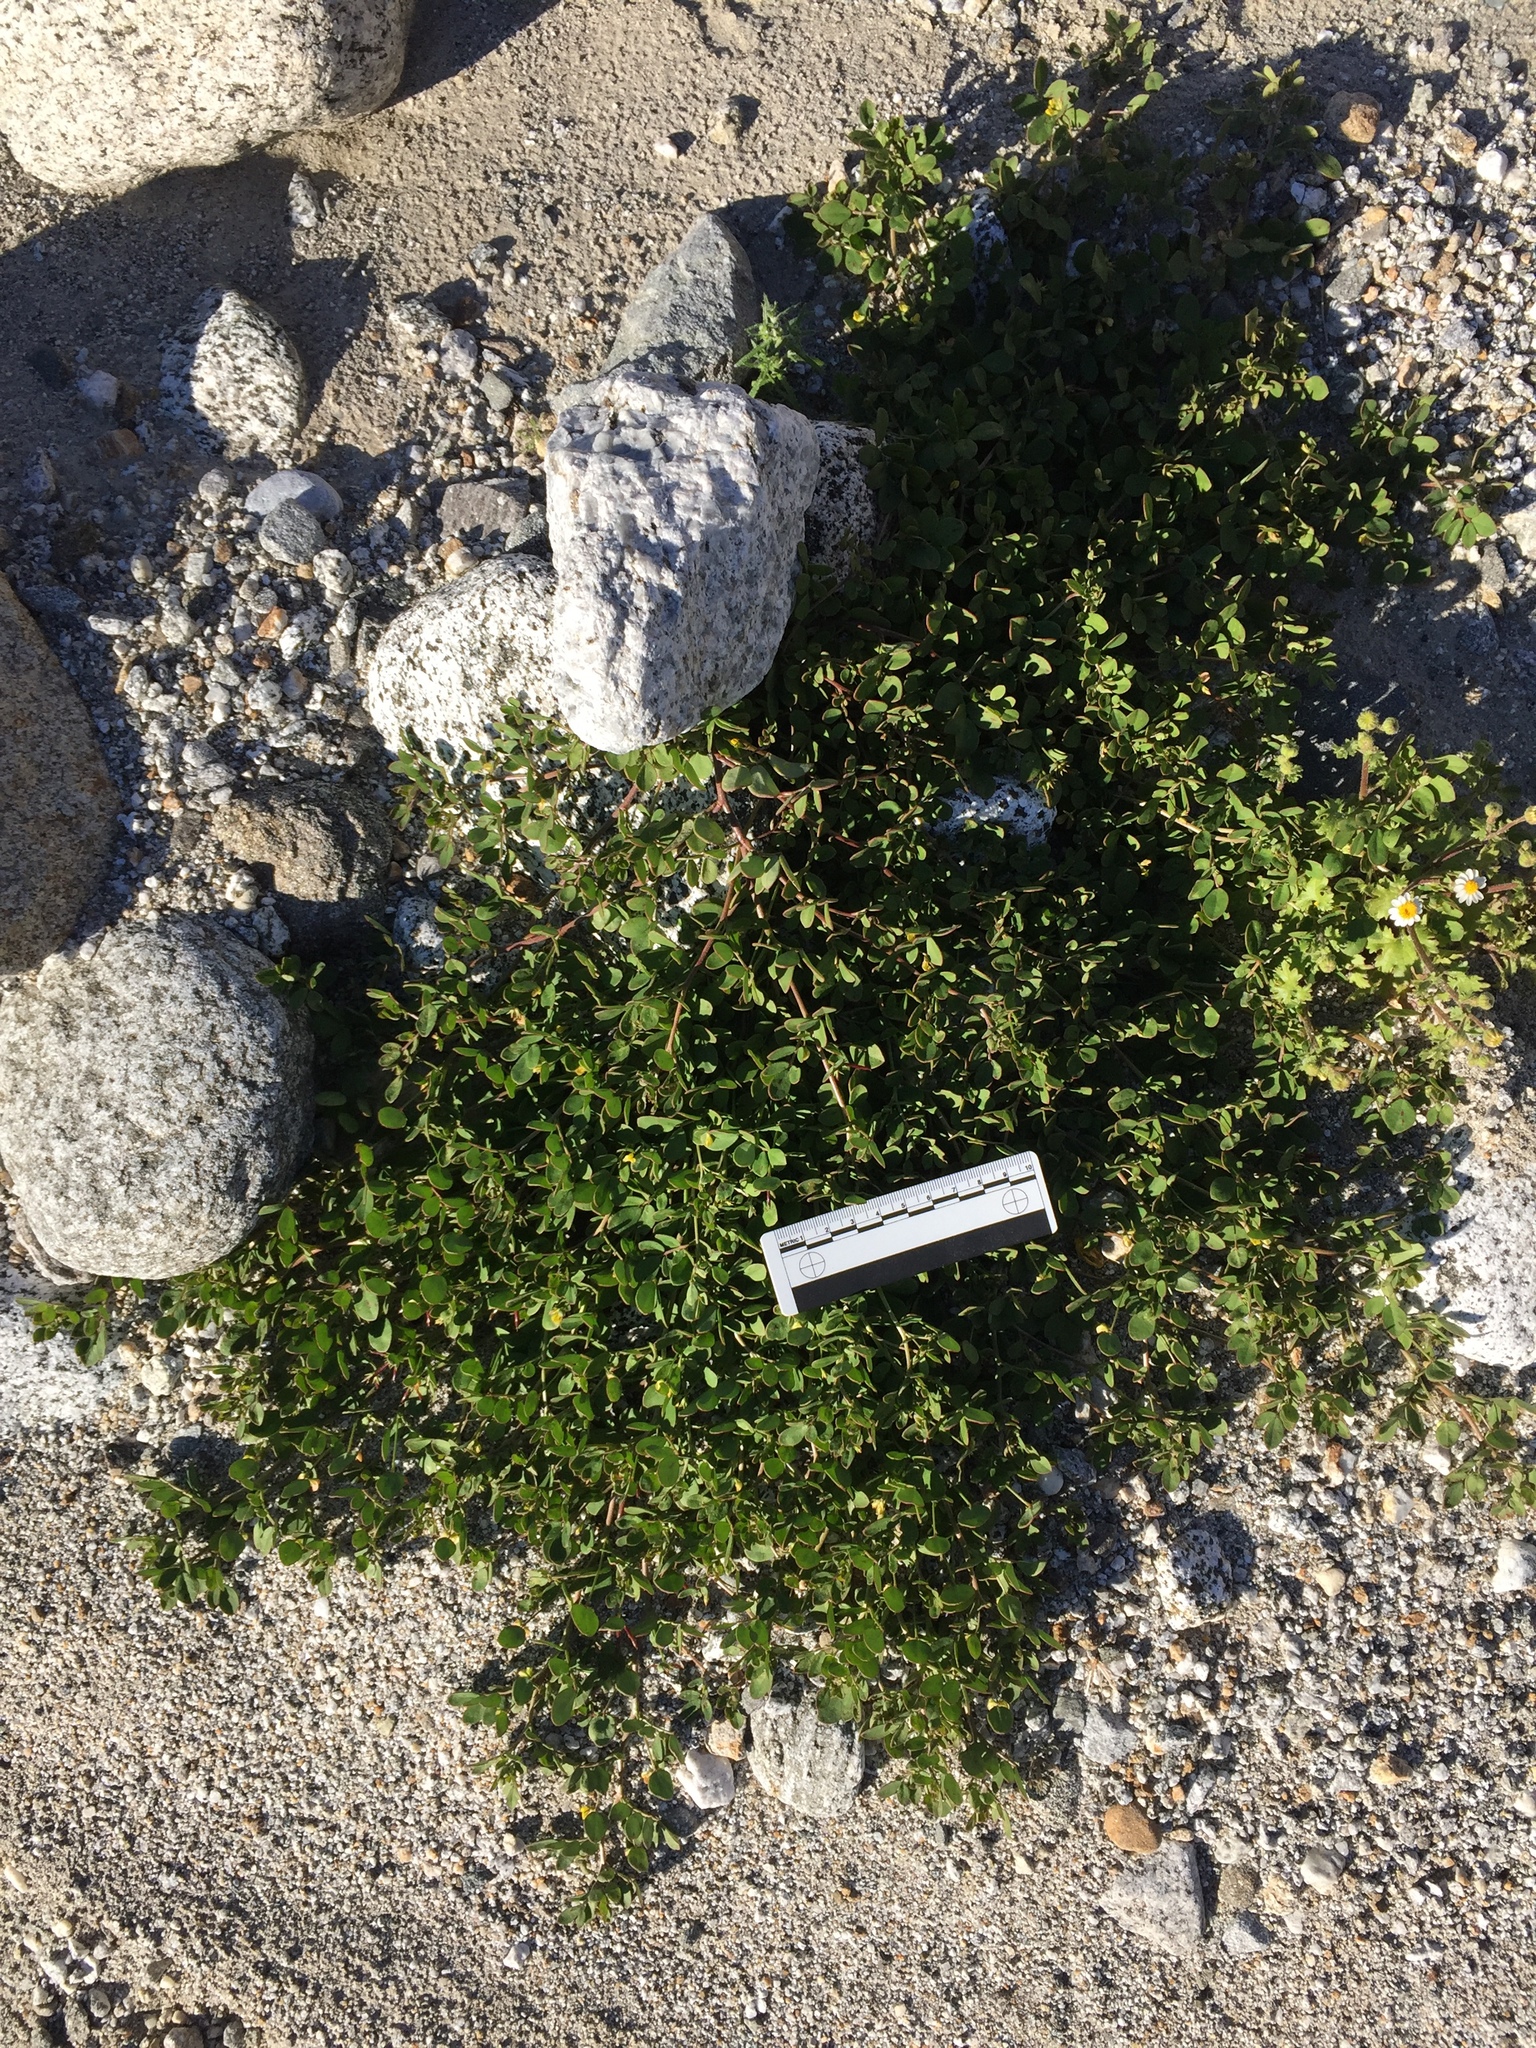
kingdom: Plantae
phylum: Tracheophyta
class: Magnoliopsida
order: Fabales
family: Fabaceae
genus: Acmispon
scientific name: Acmispon maritimus
